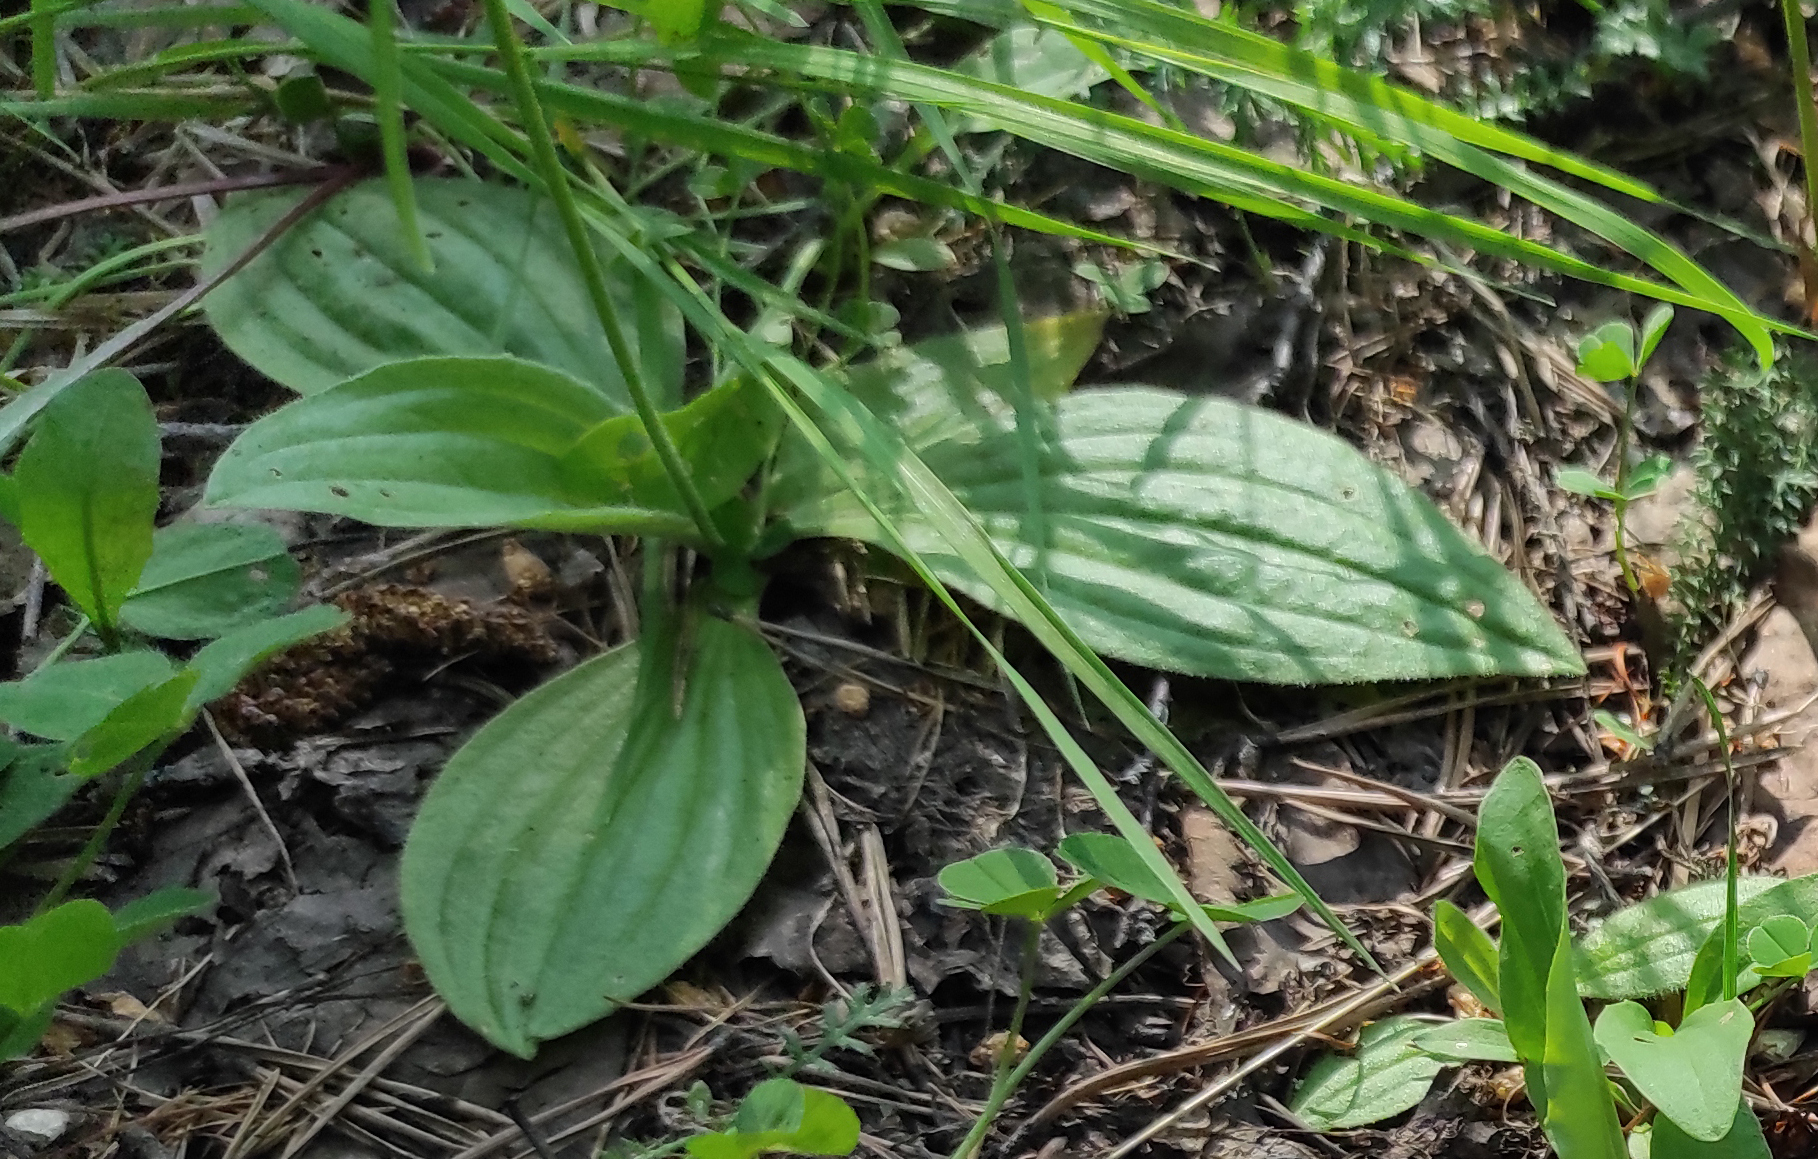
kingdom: Plantae
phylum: Tracheophyta
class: Magnoliopsida
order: Lamiales
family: Plantaginaceae
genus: Plantago
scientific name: Plantago media
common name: Hoary plantain
